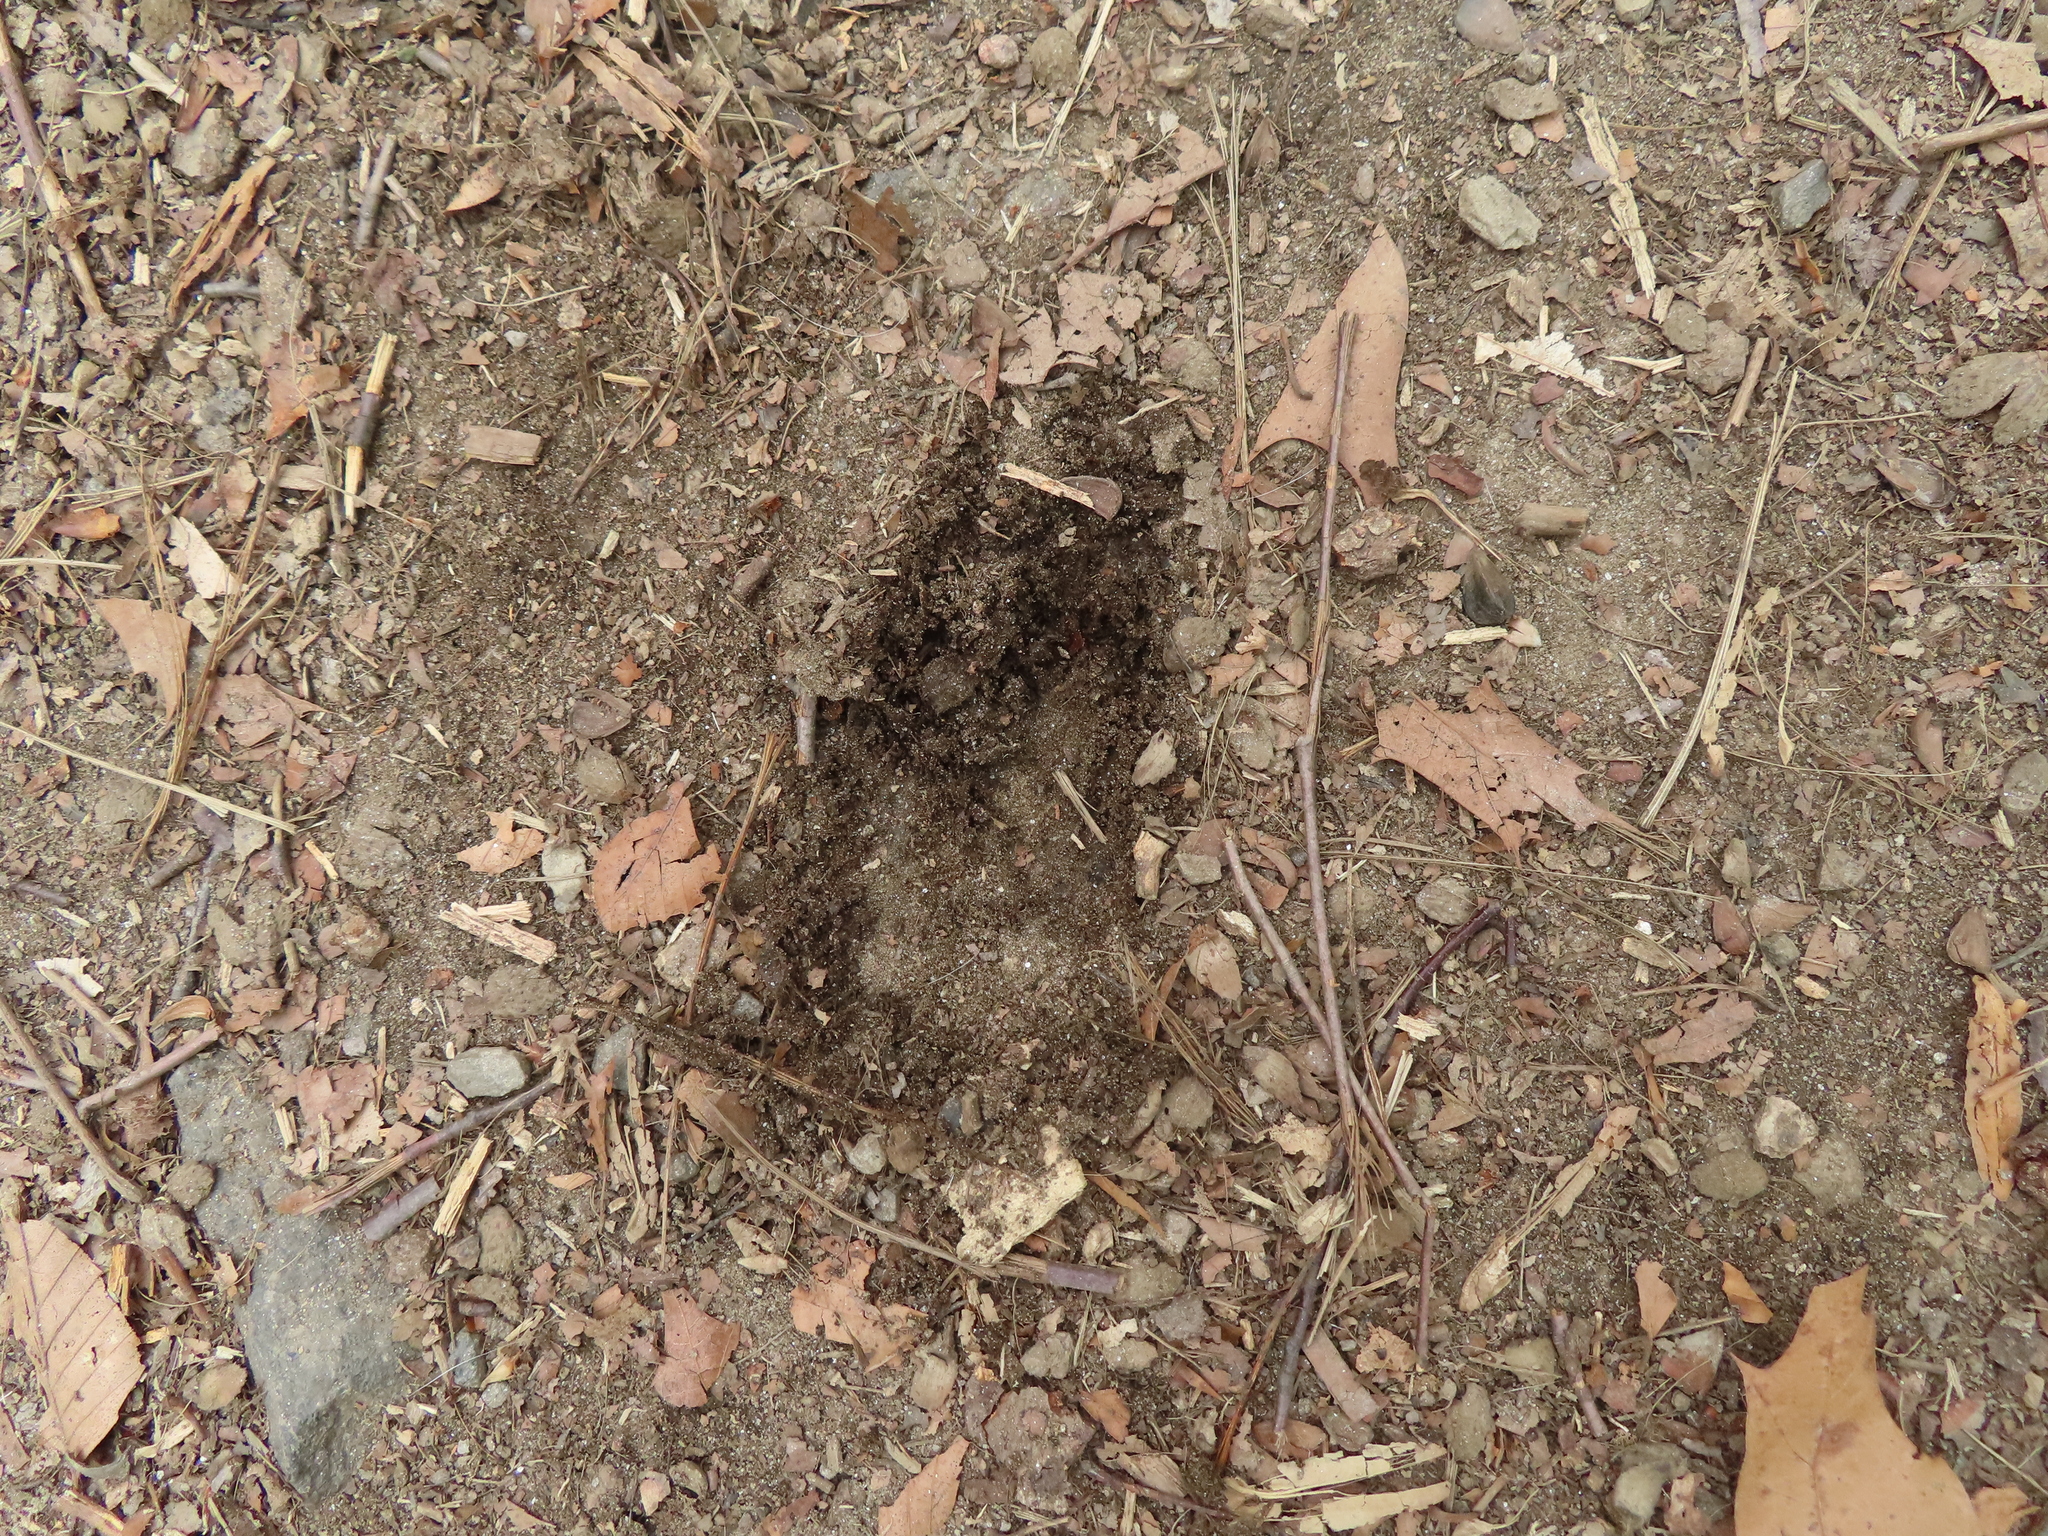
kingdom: Animalia
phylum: Chordata
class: Mammalia
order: Artiodactyla
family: Cervidae
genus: Odocoileus
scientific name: Odocoileus virginianus
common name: White-tailed deer
